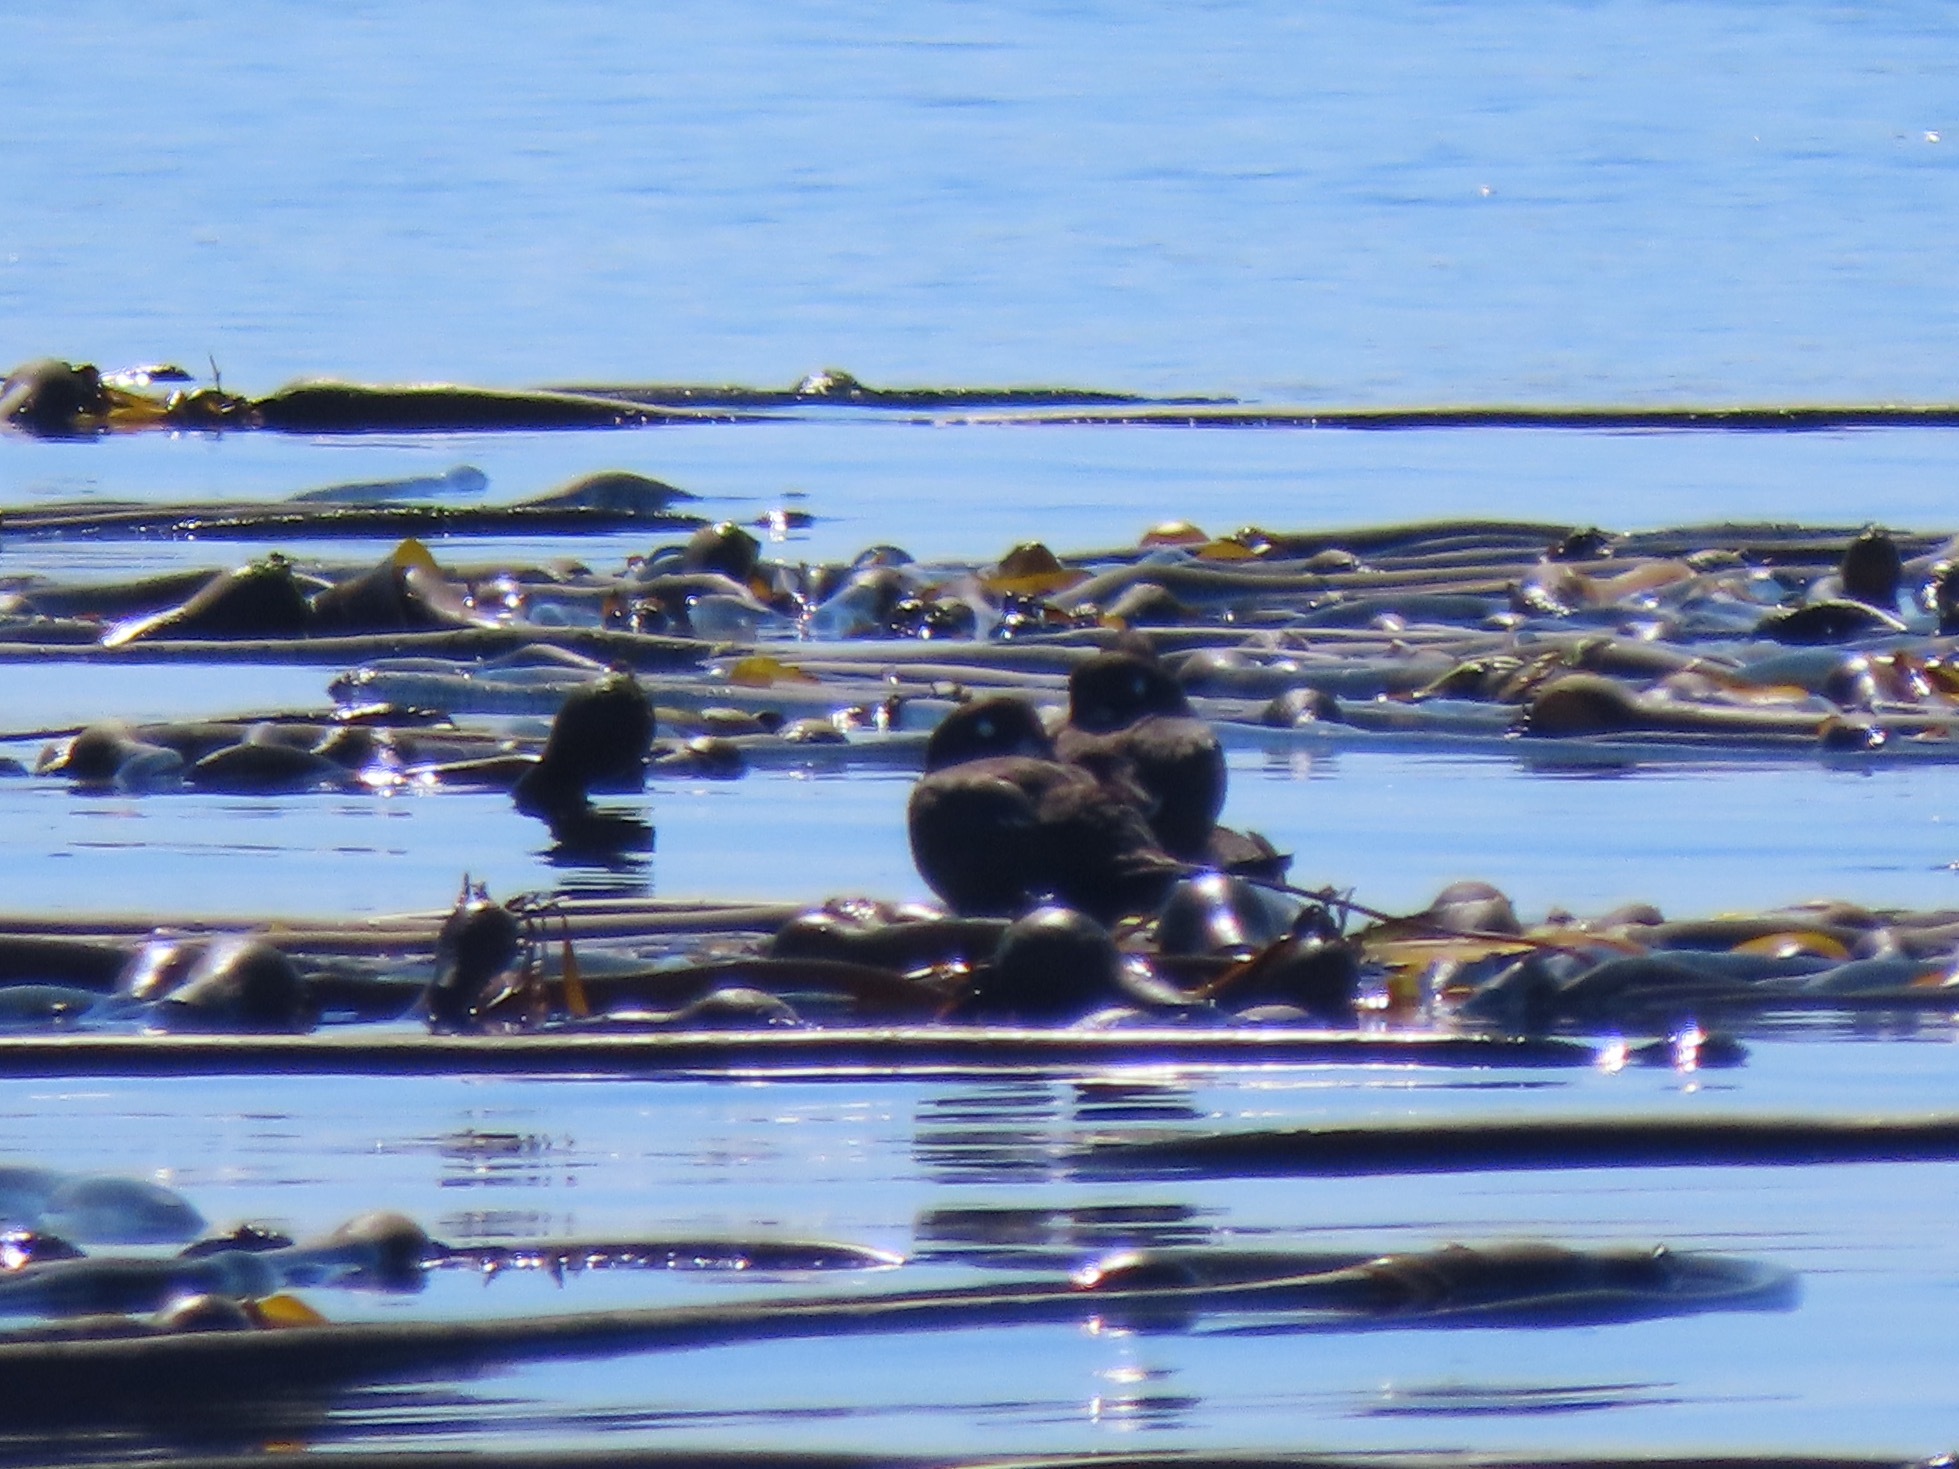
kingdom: Animalia
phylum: Chordata
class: Aves
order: Anseriformes
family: Anatidae
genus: Histrionicus
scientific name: Histrionicus histrionicus
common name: Harlequin duck
